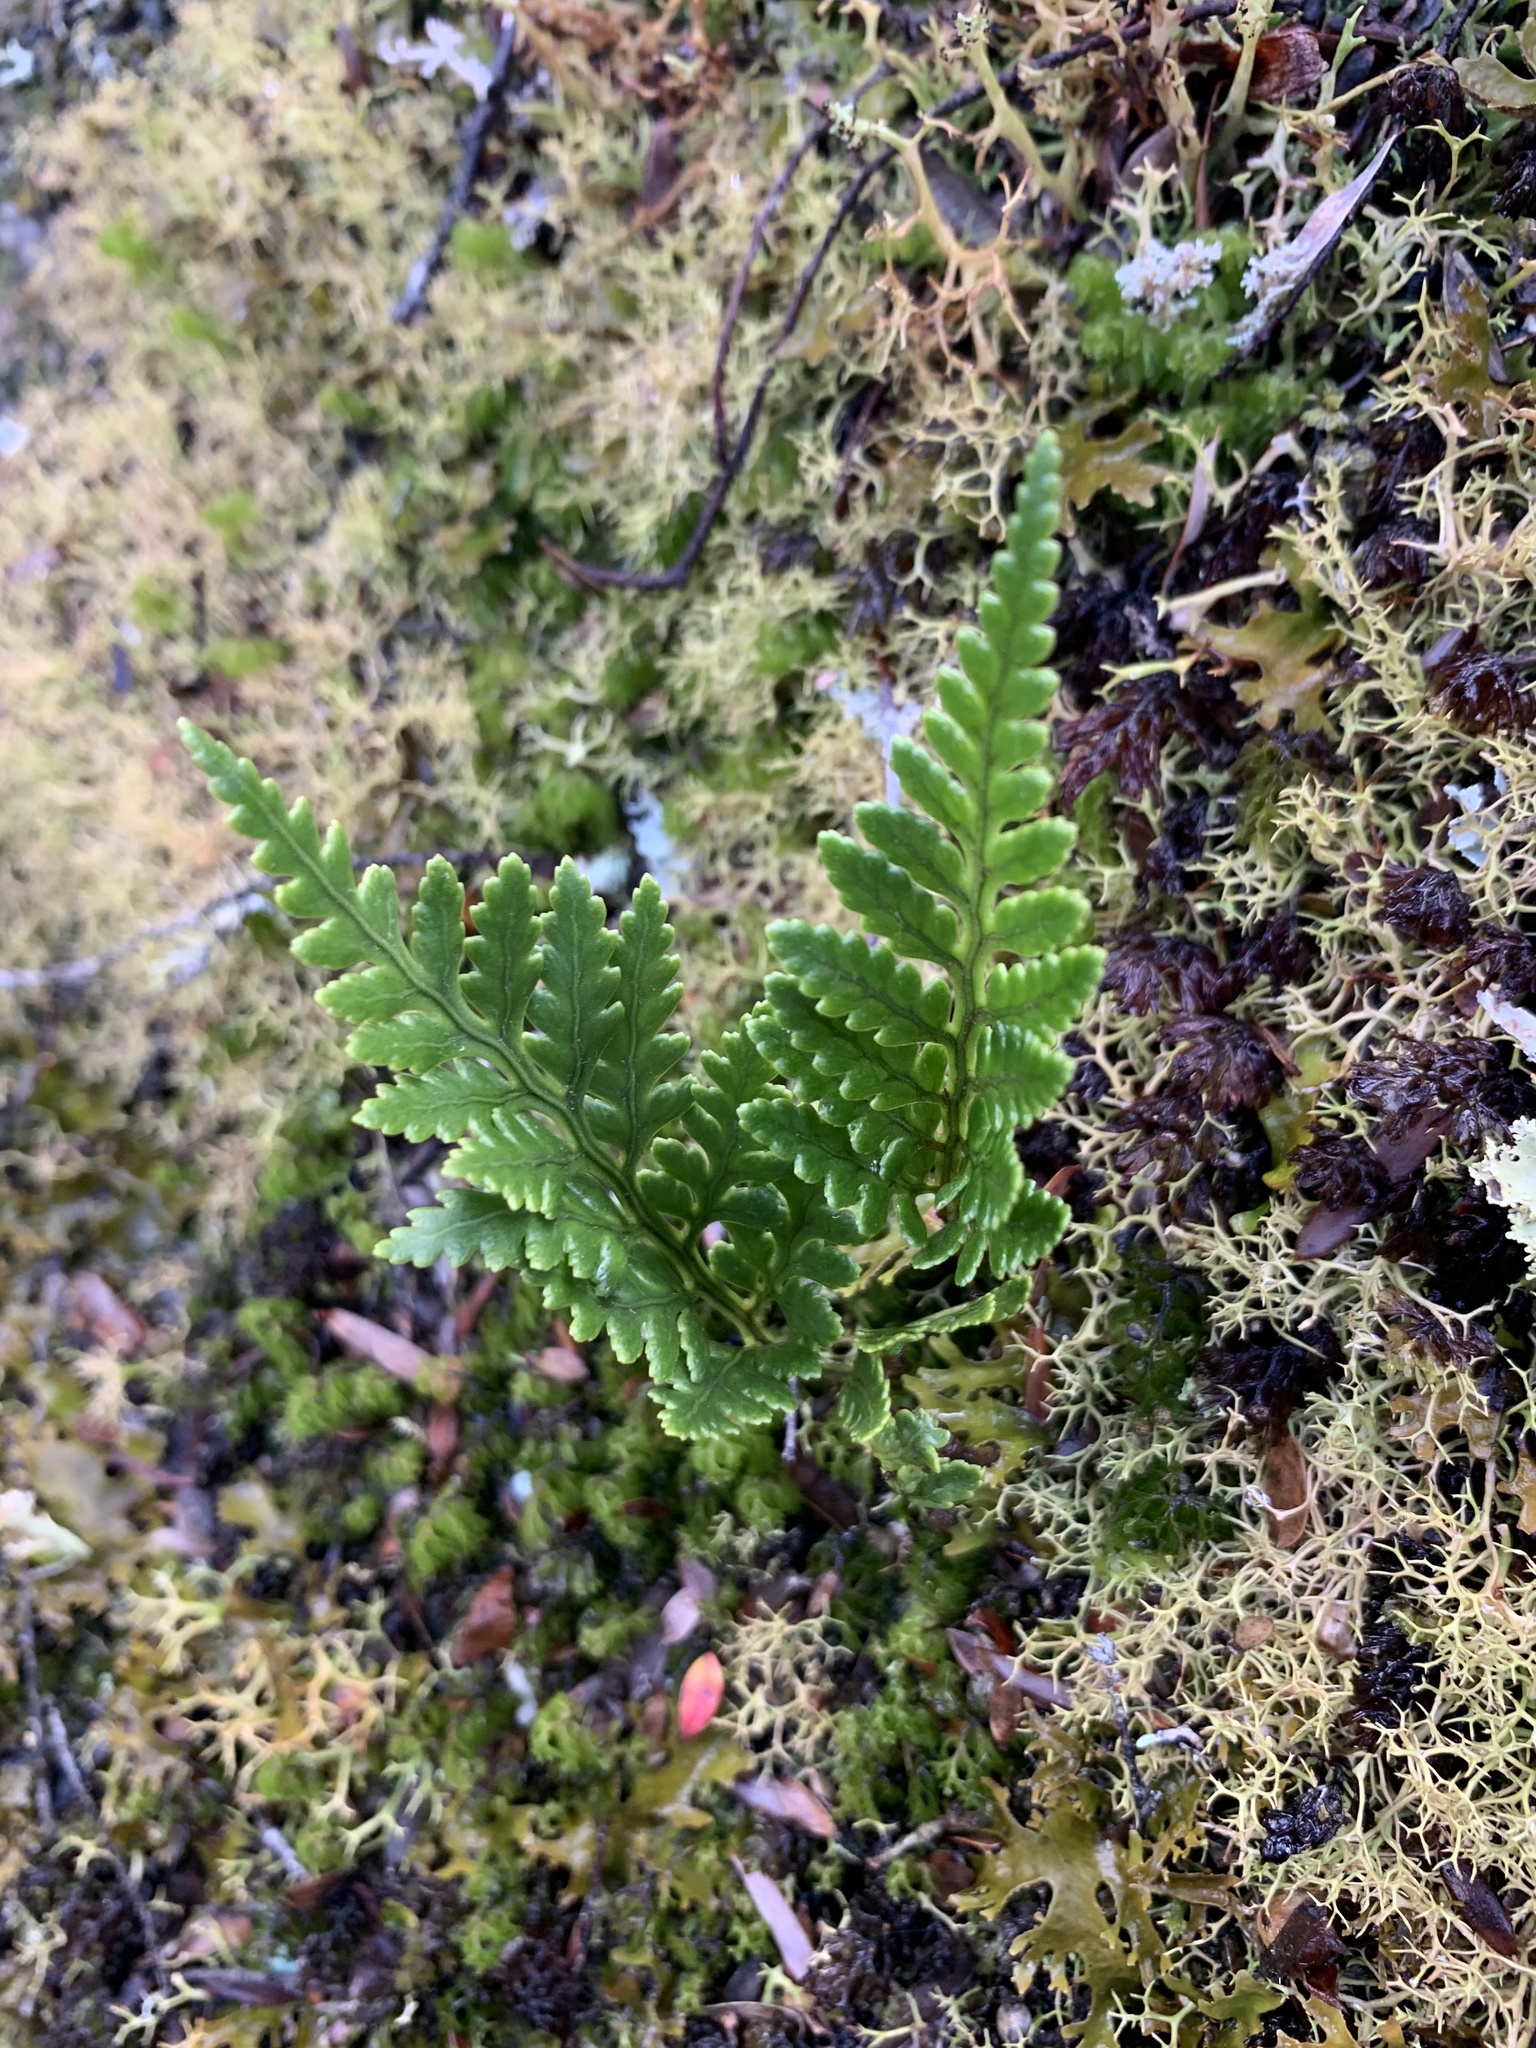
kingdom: Plantae
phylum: Tracheophyta
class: Polypodiopsida
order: Polypodiales
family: Dryopteridaceae
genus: Rumohra
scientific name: Rumohra adiantiformis
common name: Leather fern
